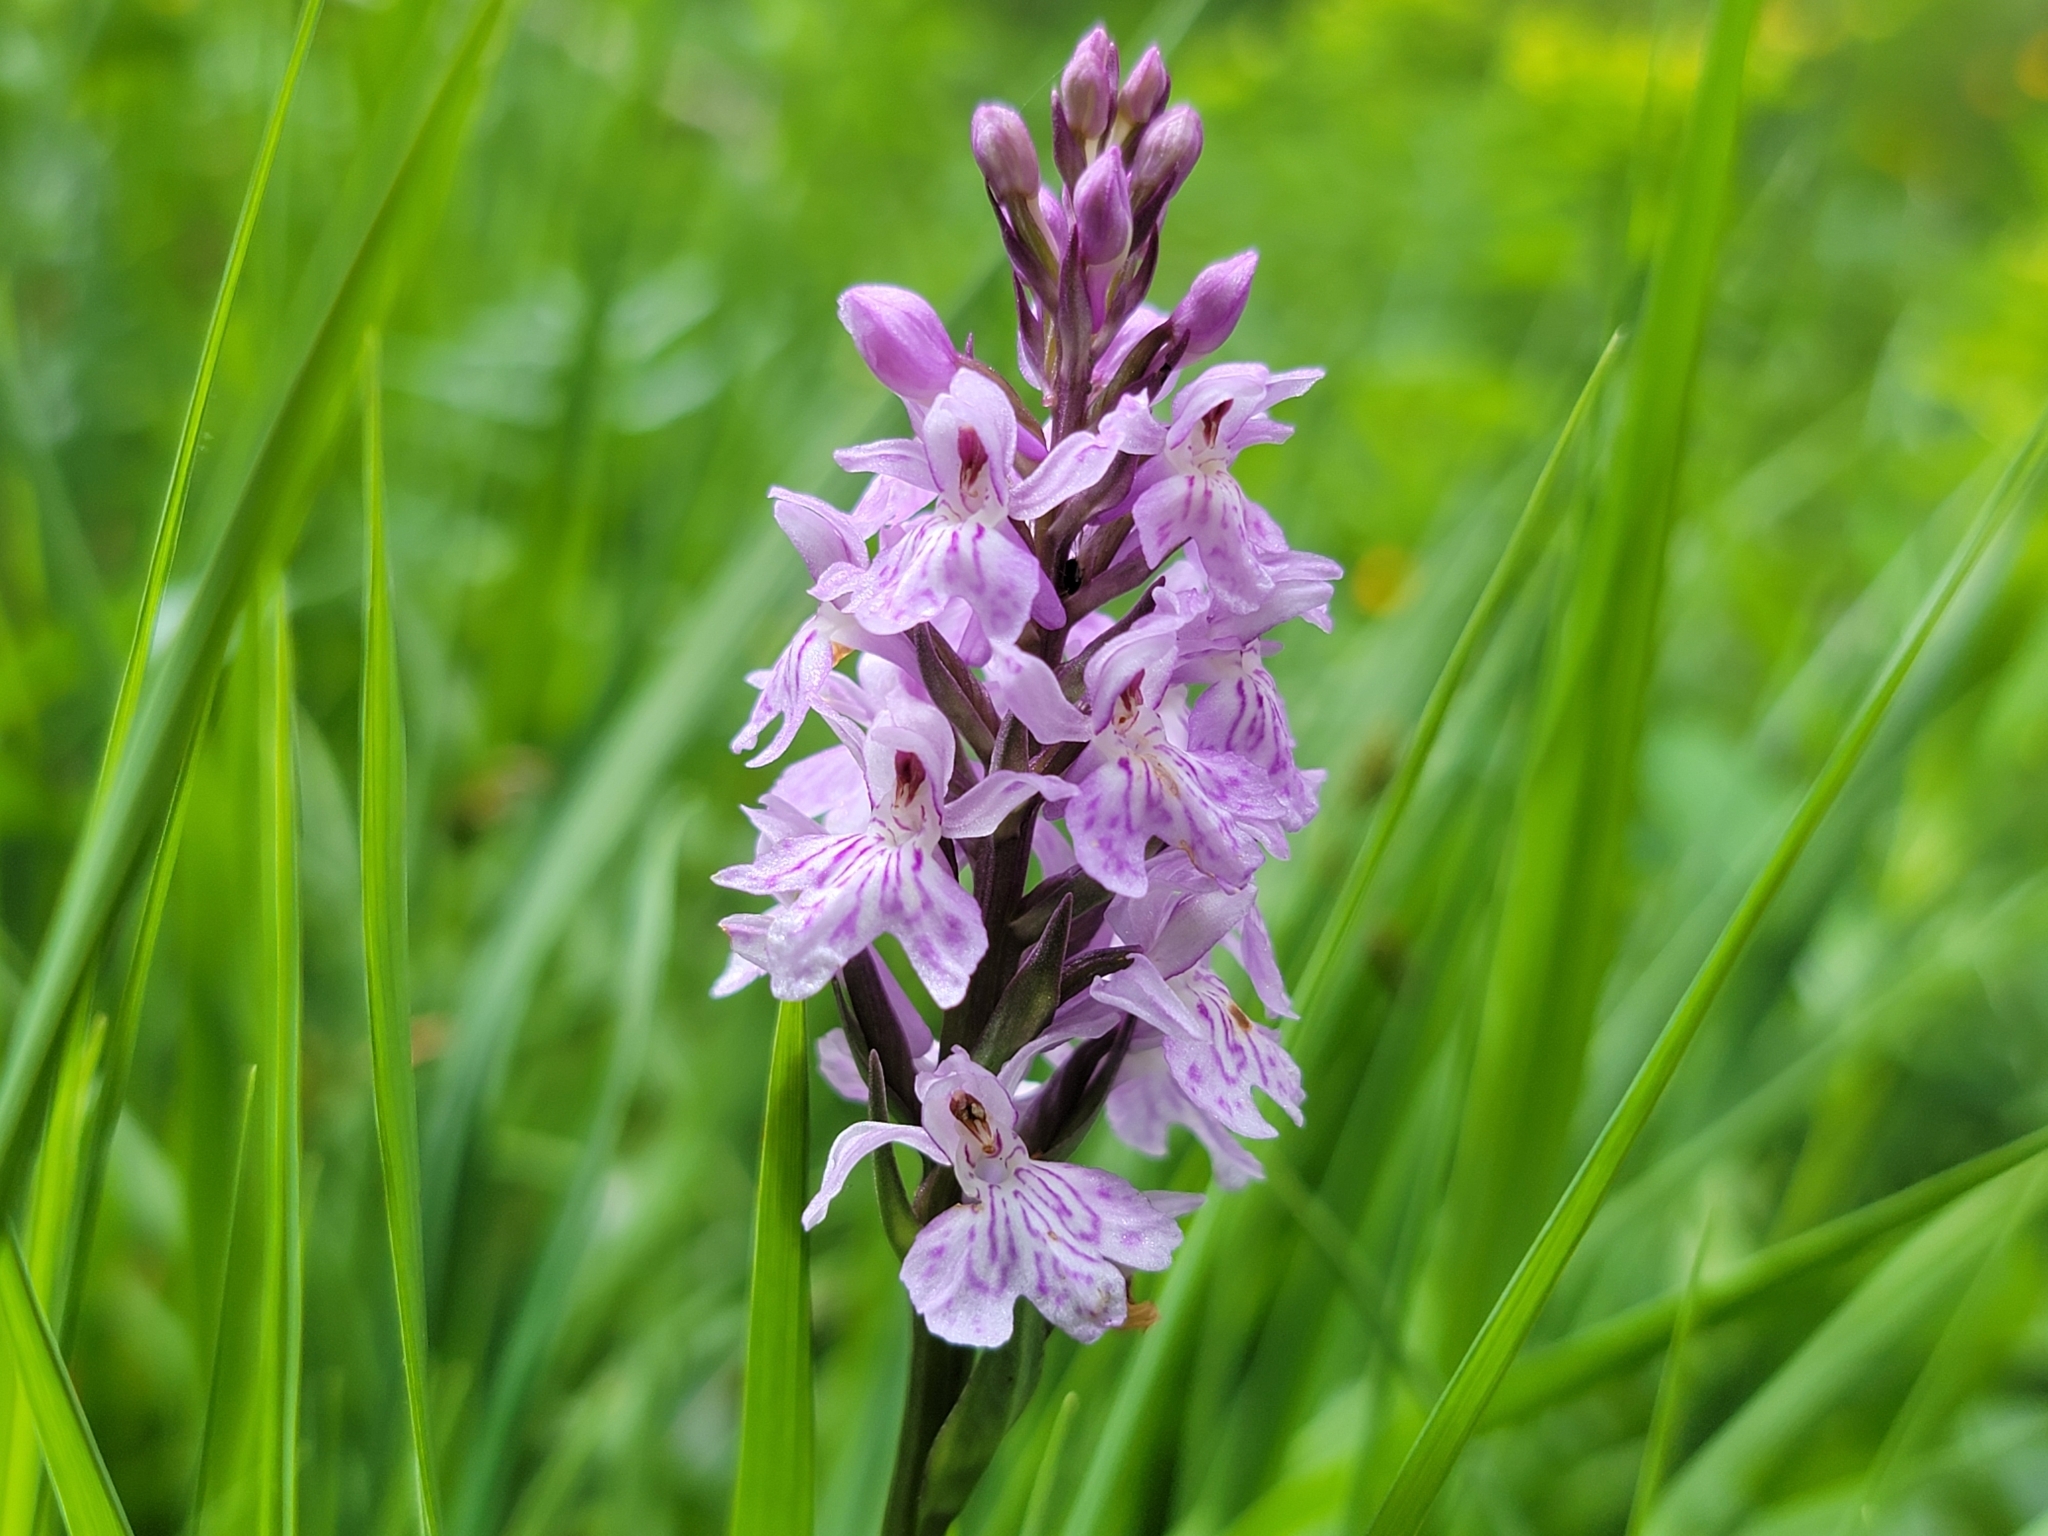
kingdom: Plantae
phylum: Tracheophyta
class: Liliopsida
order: Asparagales
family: Orchidaceae
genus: Dactylorhiza
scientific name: Dactylorhiza maculata
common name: Heath spotted-orchid
